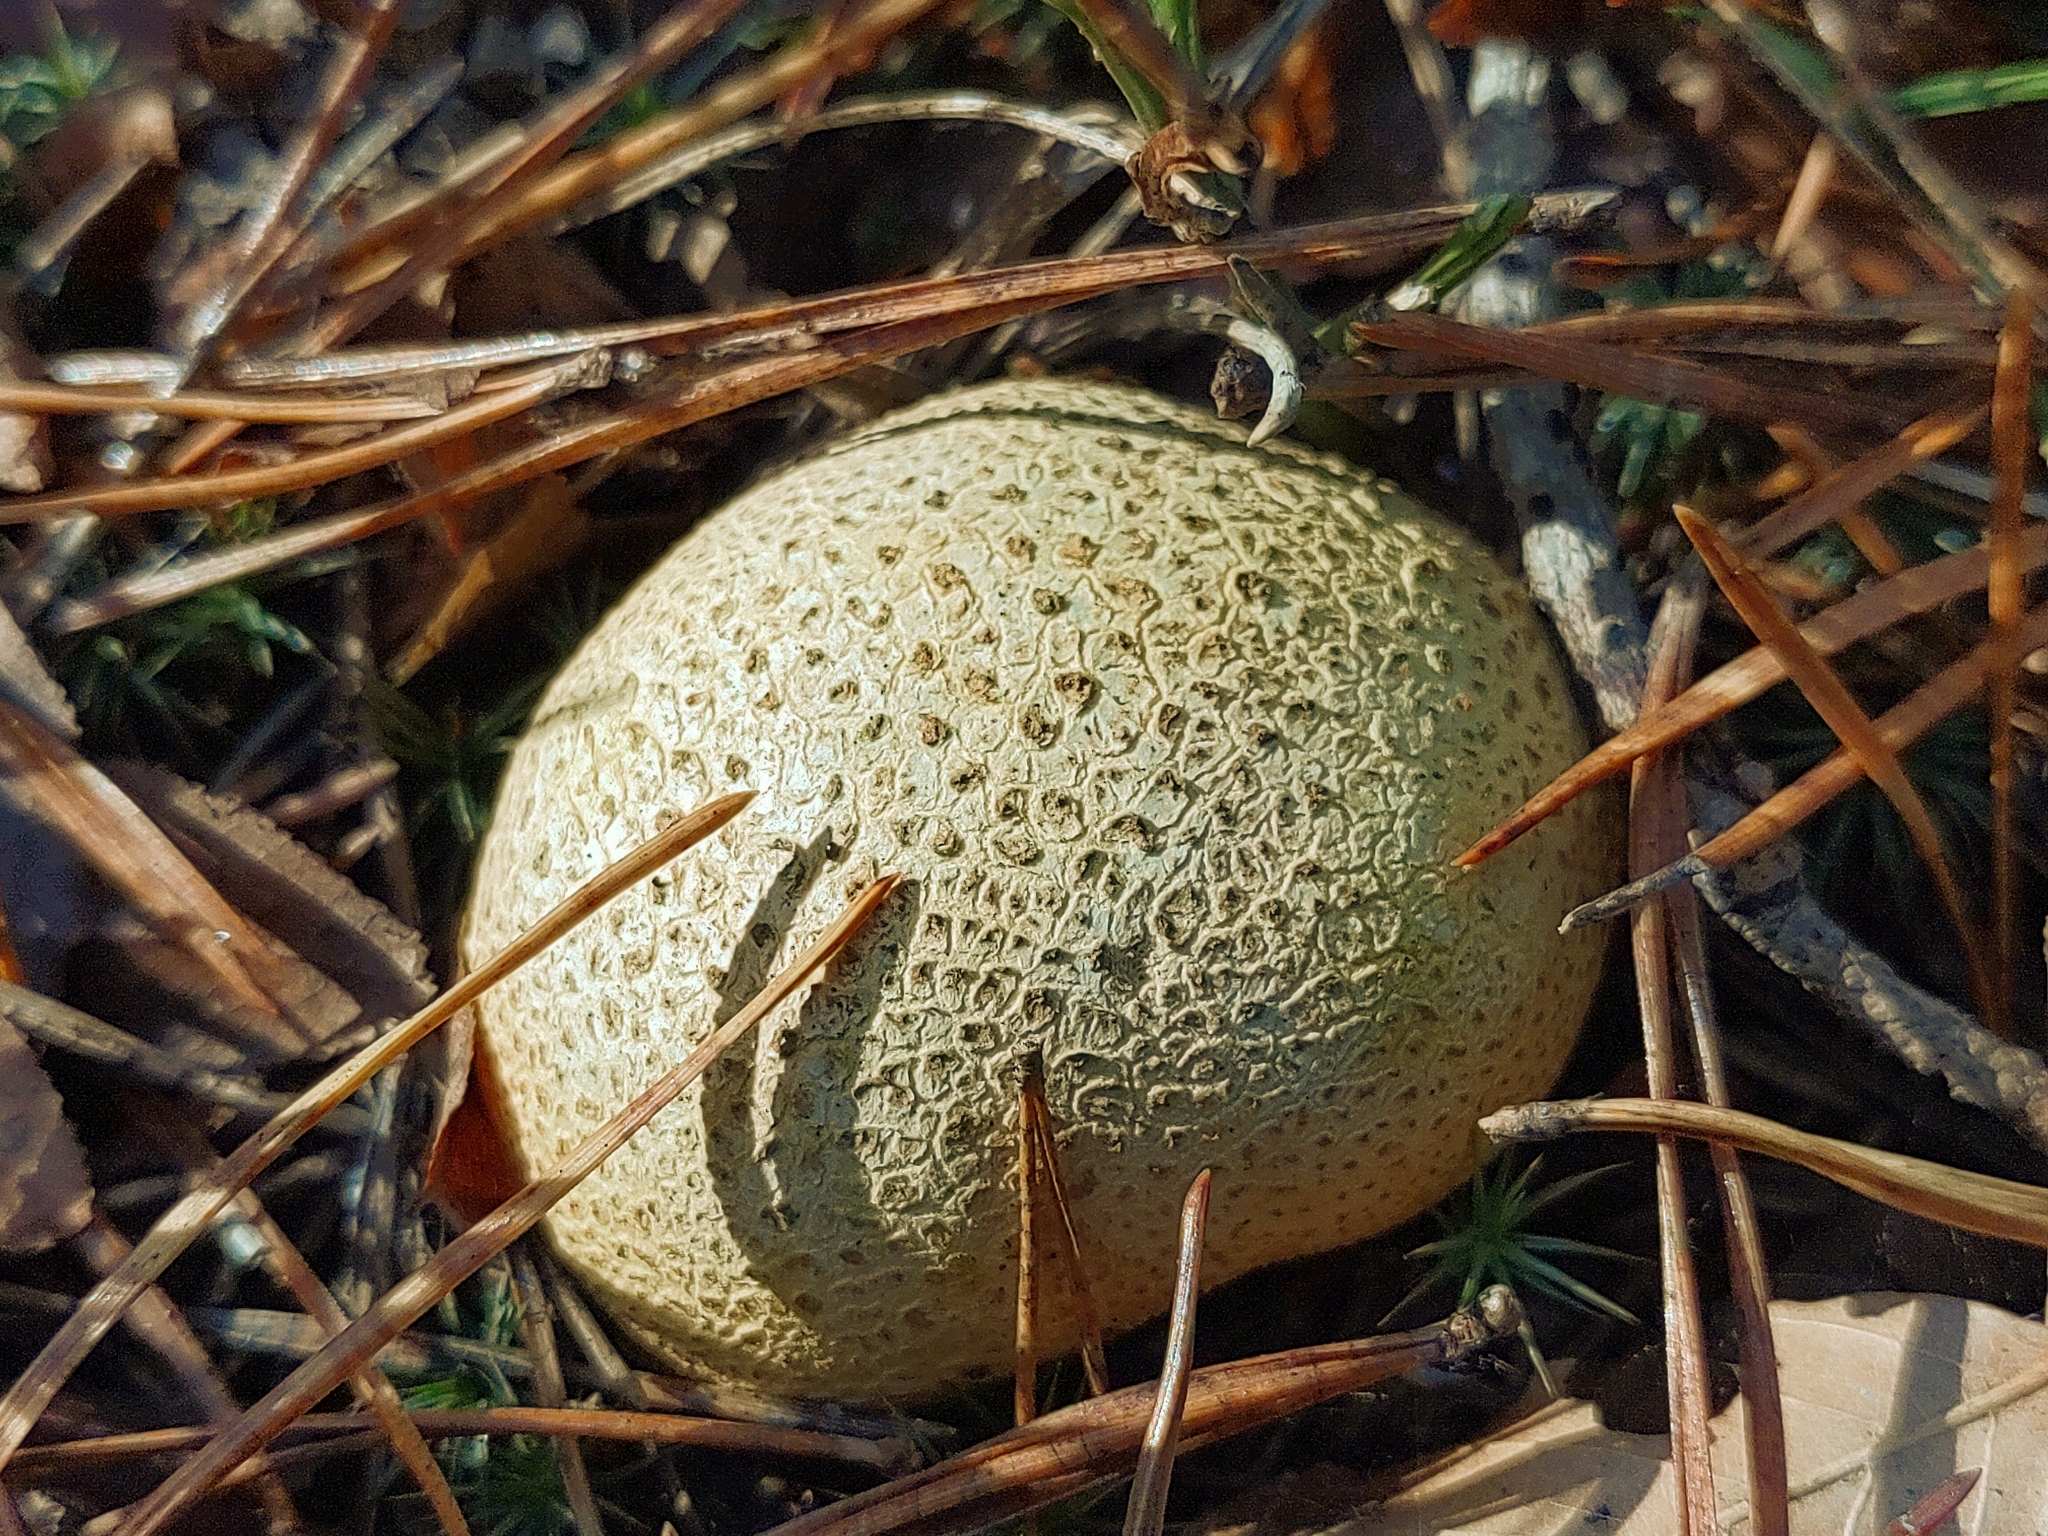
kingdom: Fungi
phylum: Basidiomycota
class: Agaricomycetes
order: Boletales
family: Sclerodermataceae
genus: Scleroderma
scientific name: Scleroderma citrinum
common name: Common earthball
